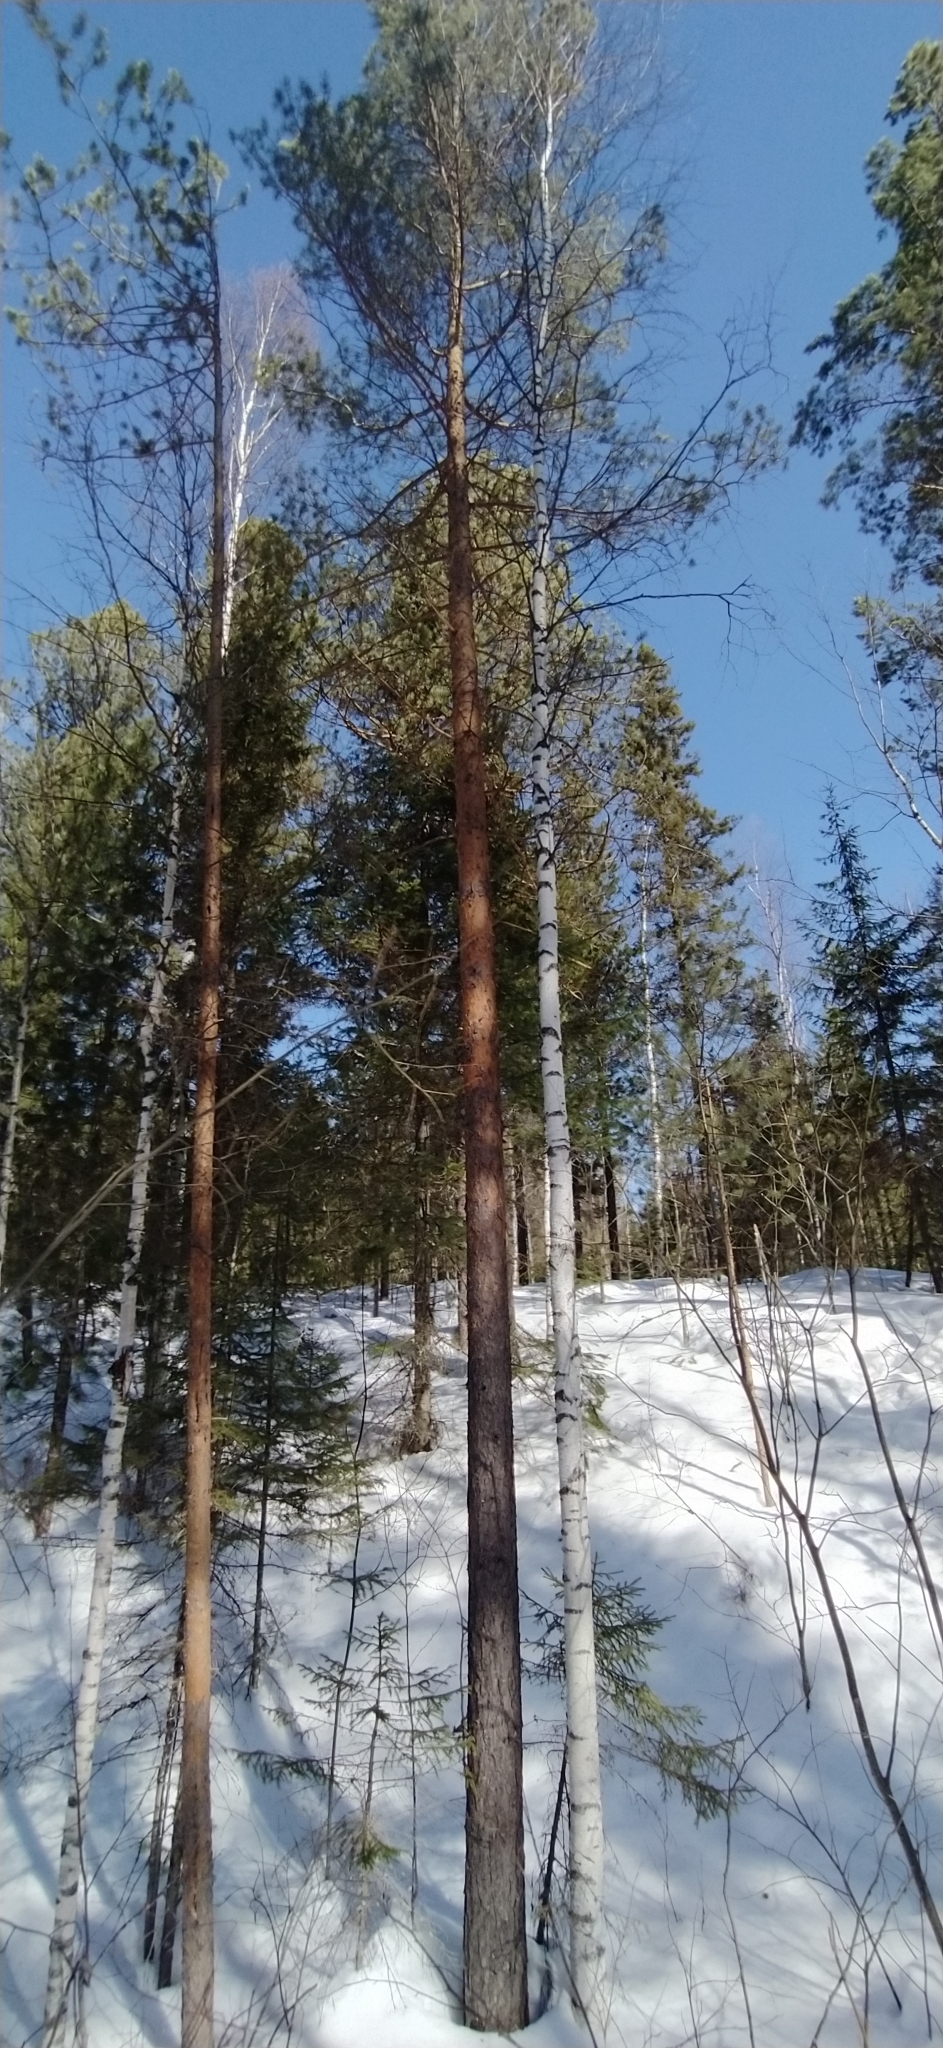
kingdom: Plantae
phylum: Tracheophyta
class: Pinopsida
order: Pinales
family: Pinaceae
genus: Pinus
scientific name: Pinus sylvestris
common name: Scots pine
